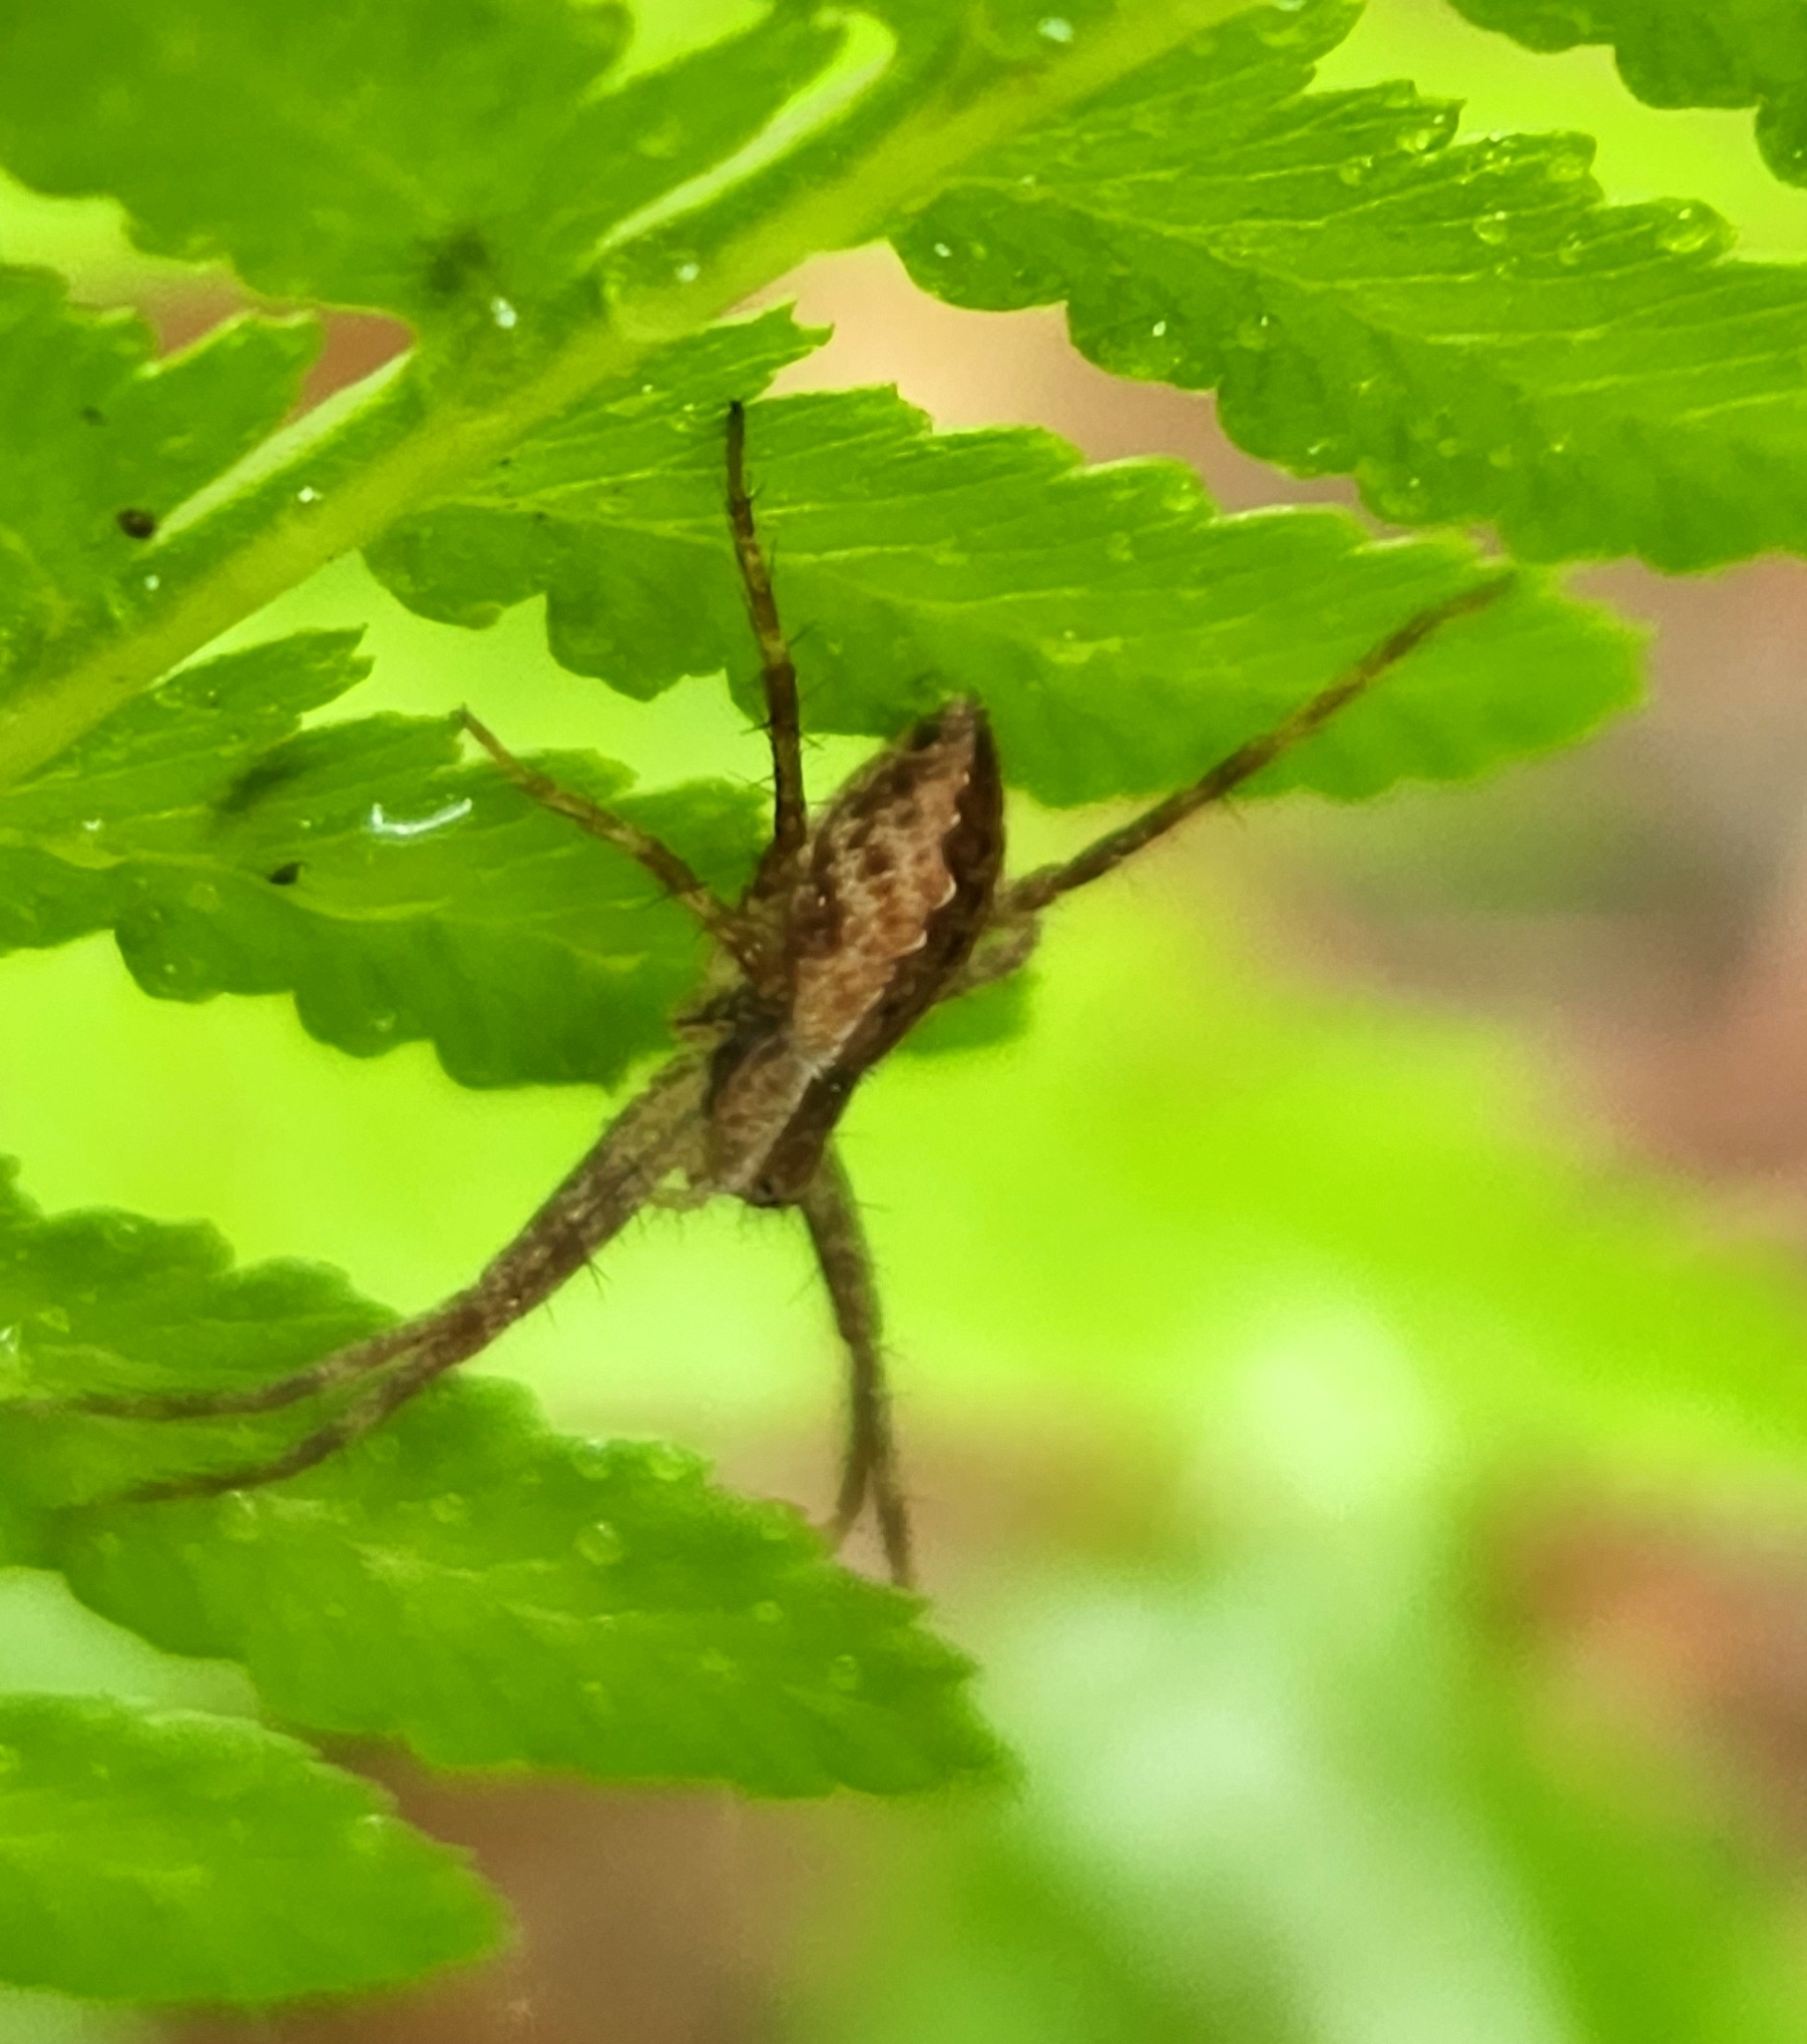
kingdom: Animalia
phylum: Arthropoda
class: Arachnida
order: Araneae
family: Pisauridae
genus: Pisaurina
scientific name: Pisaurina mira
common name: American nursery web spider
